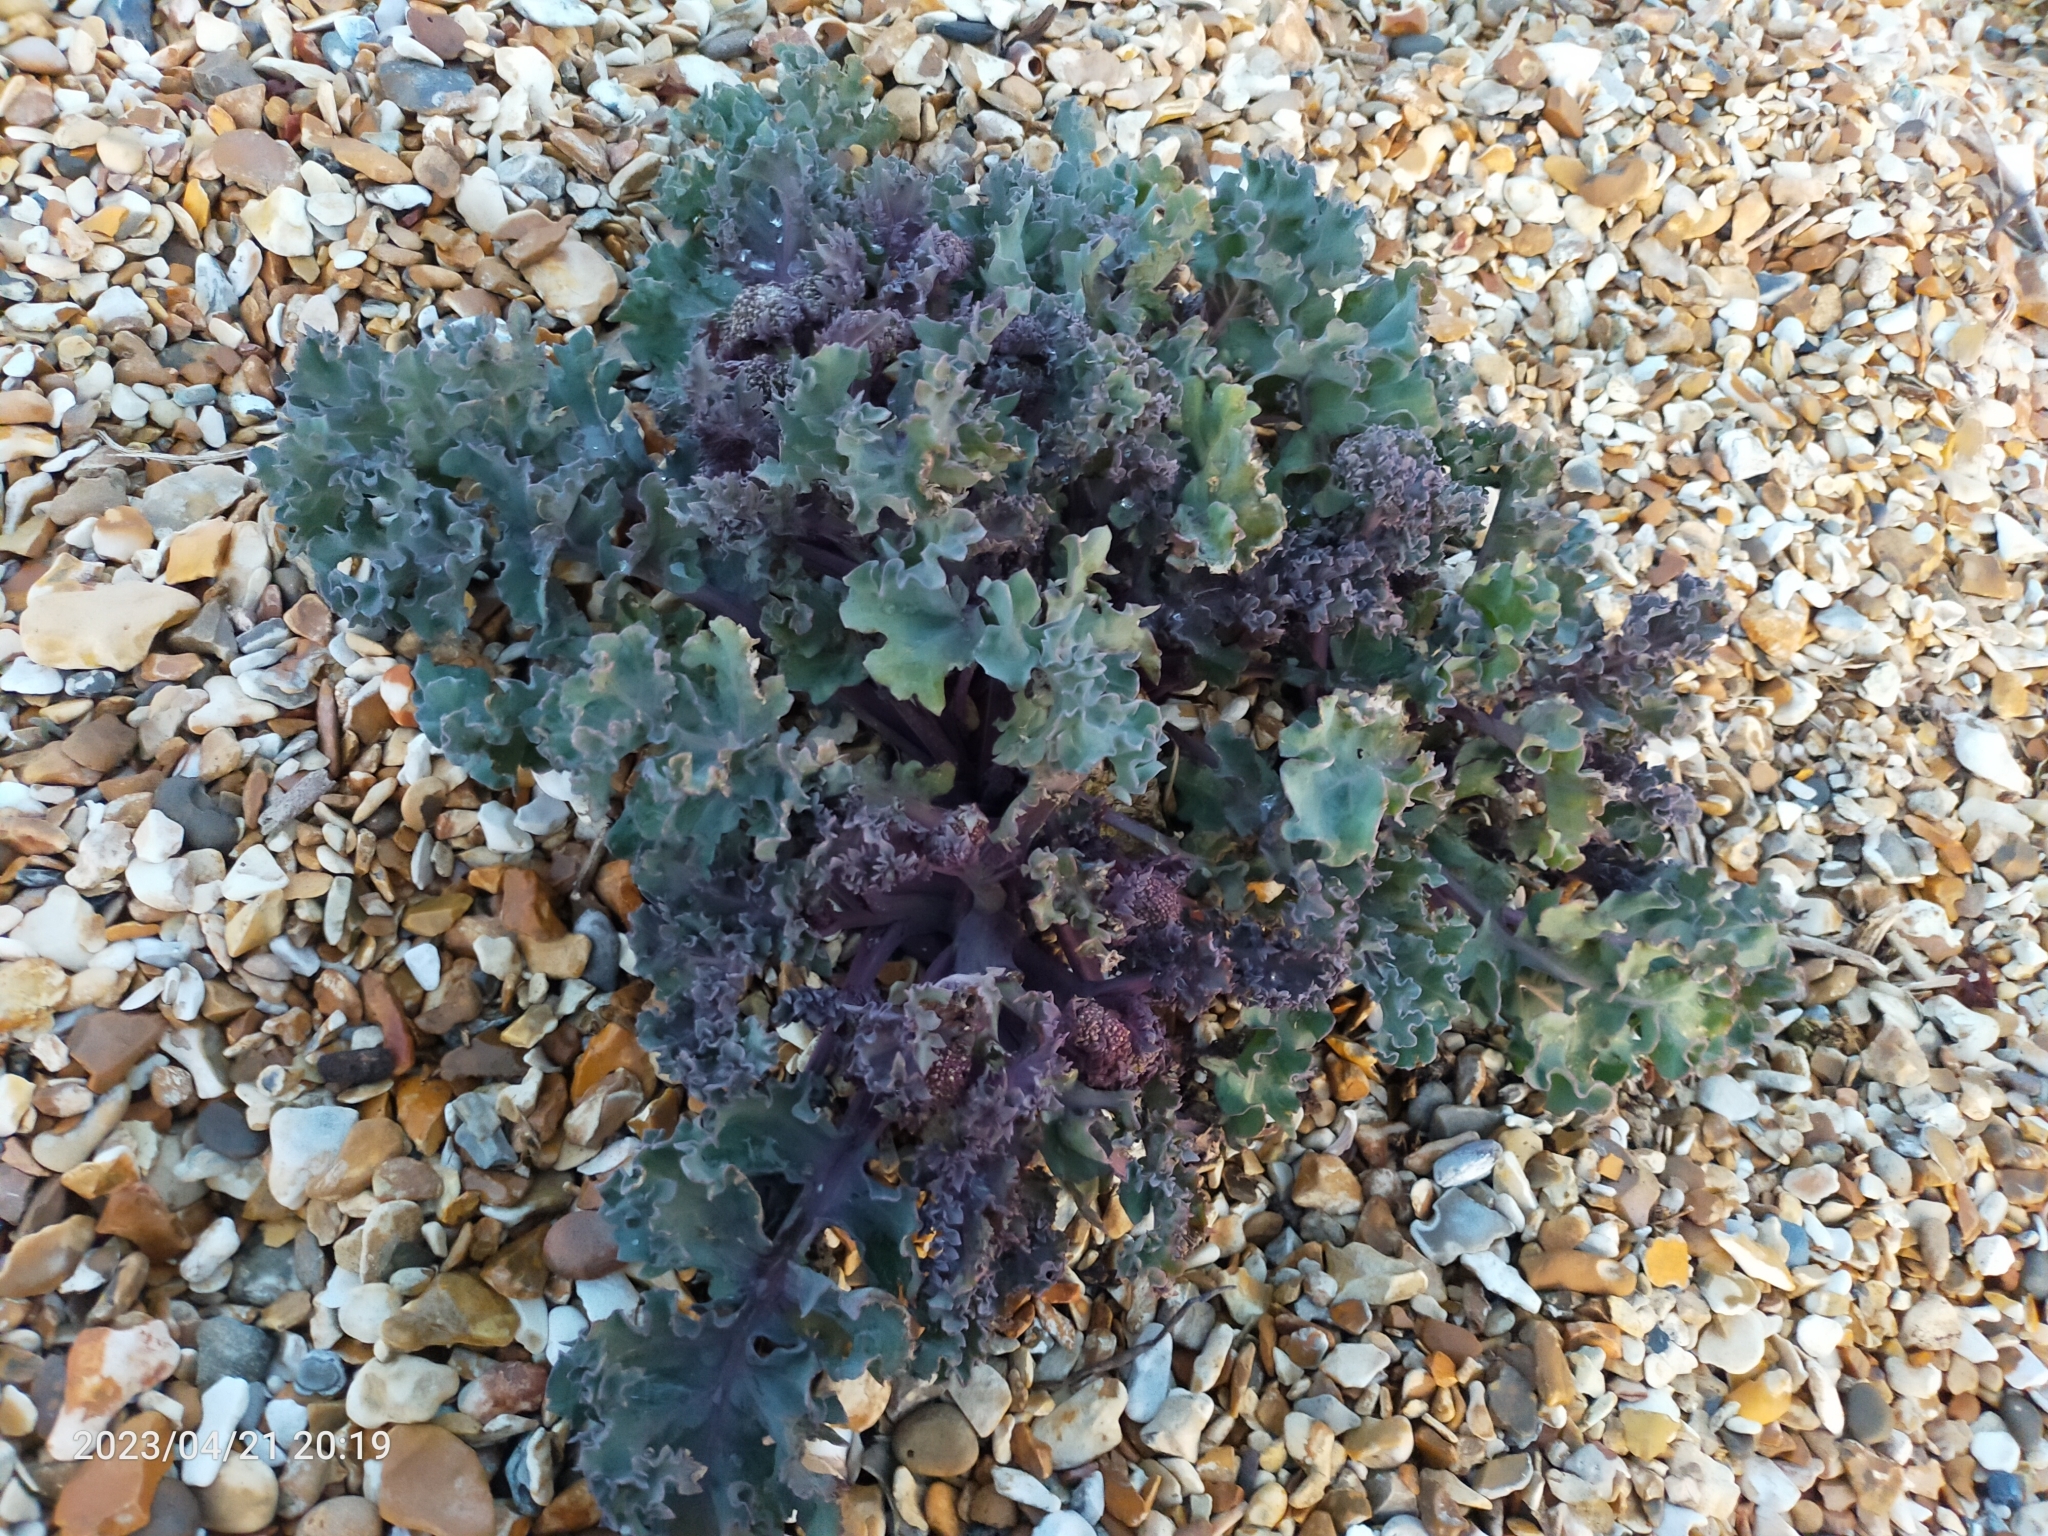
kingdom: Plantae
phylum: Tracheophyta
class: Magnoliopsida
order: Brassicales
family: Brassicaceae
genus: Crambe
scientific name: Crambe maritima
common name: Sea-kale
